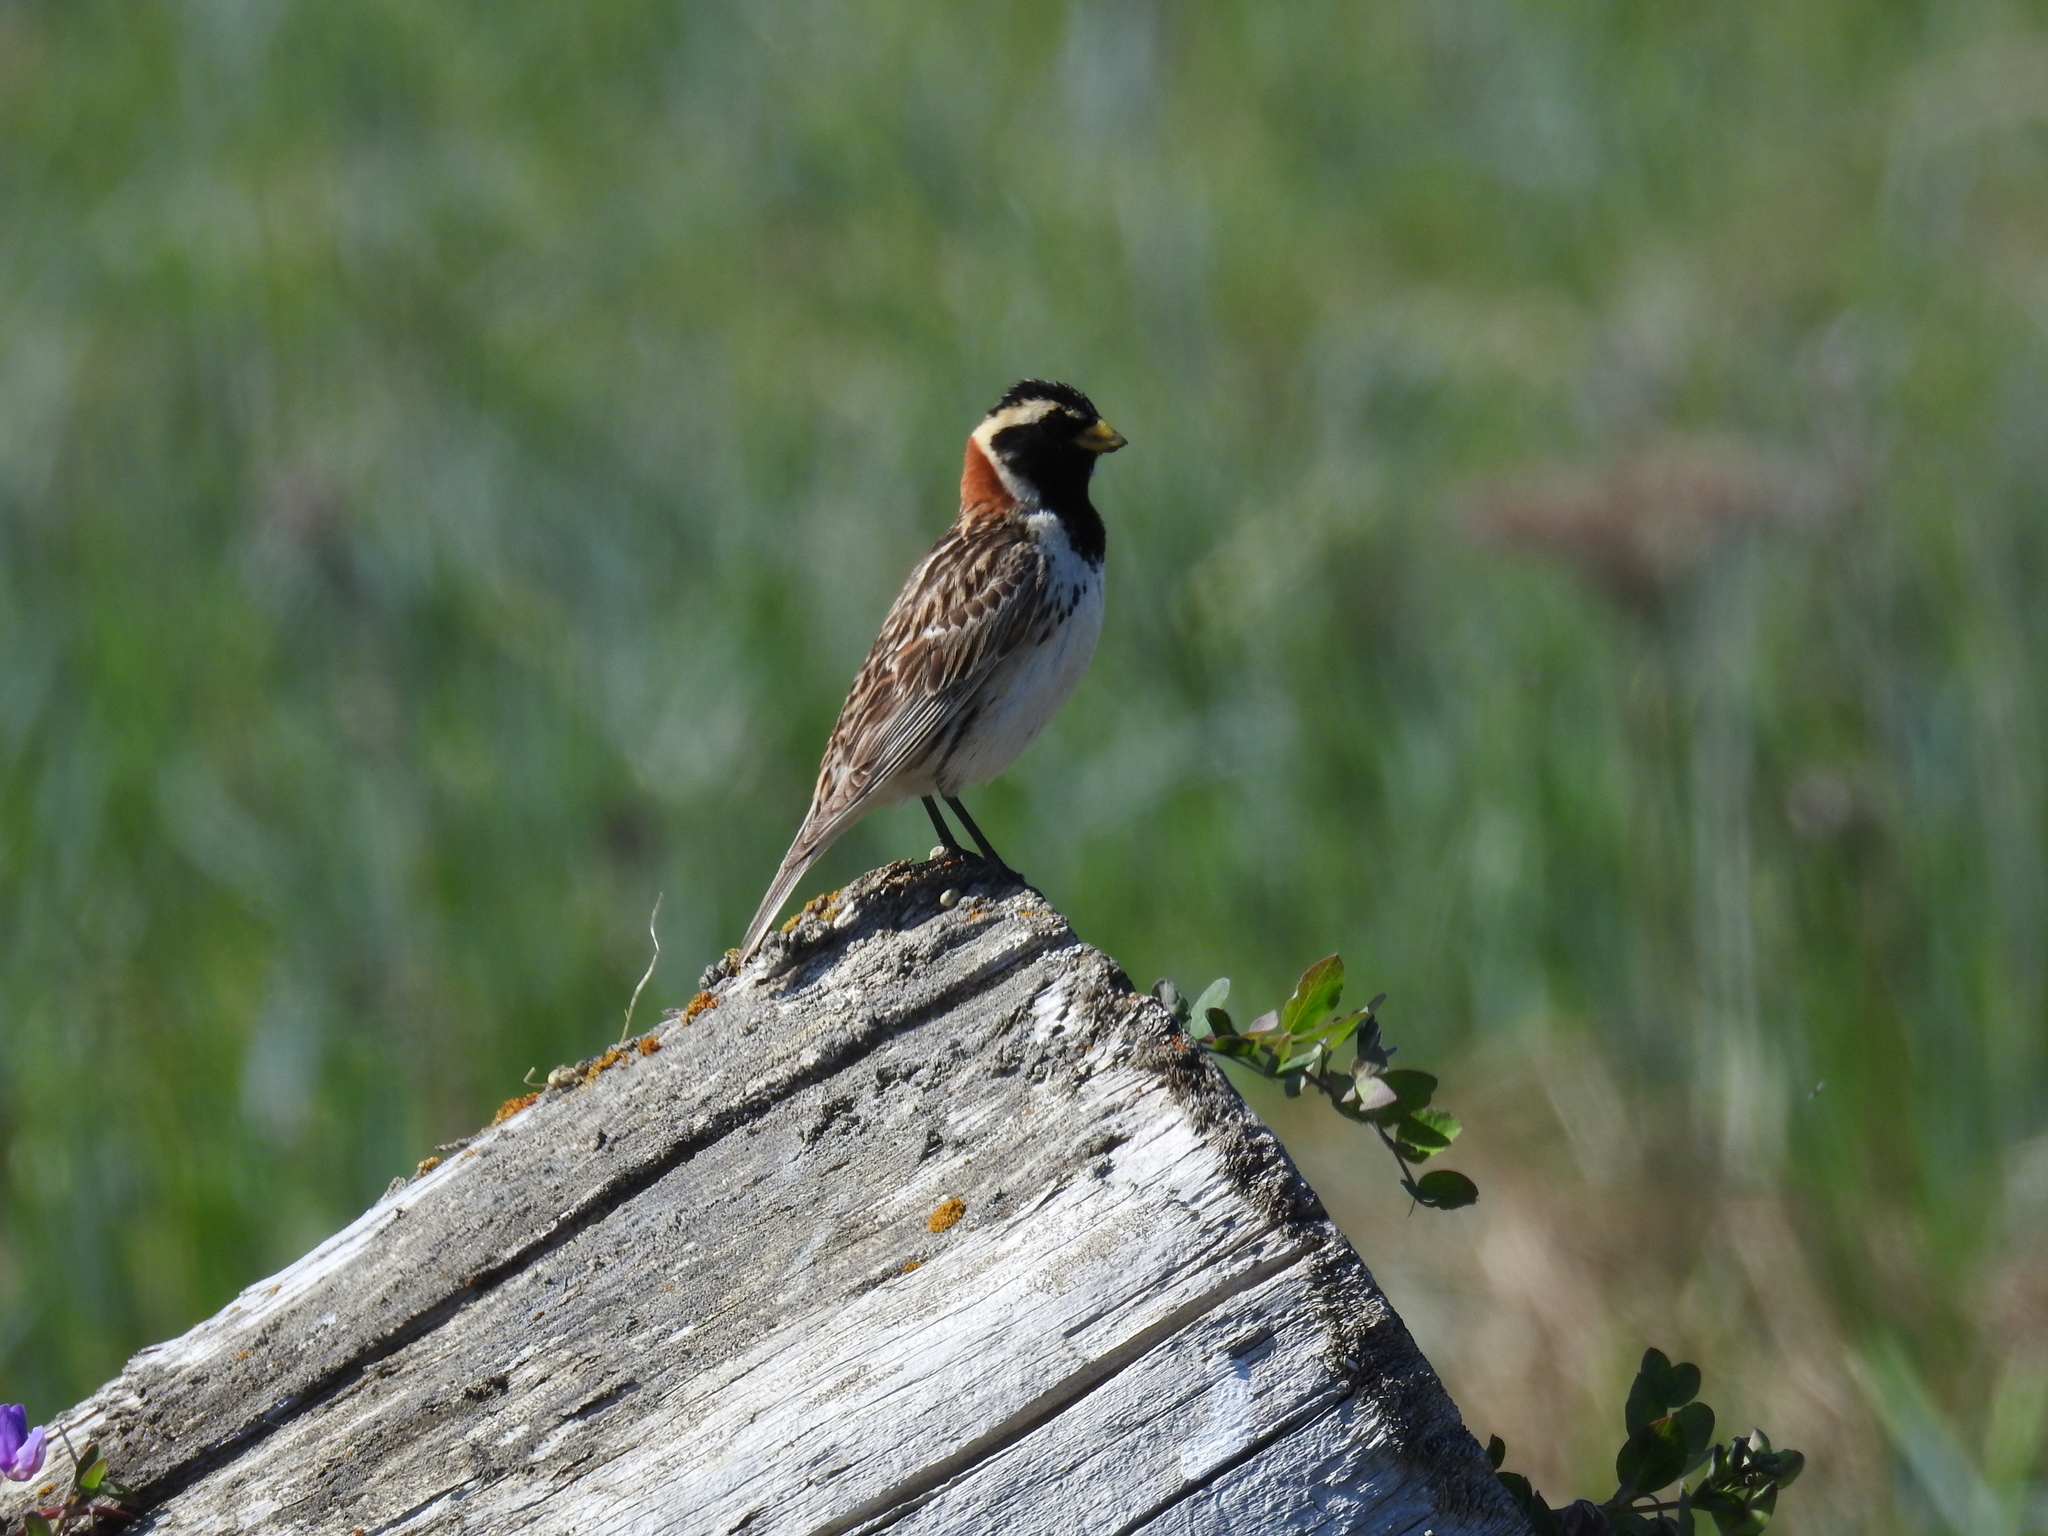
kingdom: Animalia
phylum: Chordata
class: Aves
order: Passeriformes
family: Calcariidae
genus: Calcarius
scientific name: Calcarius lapponicus
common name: Lapland longspur
